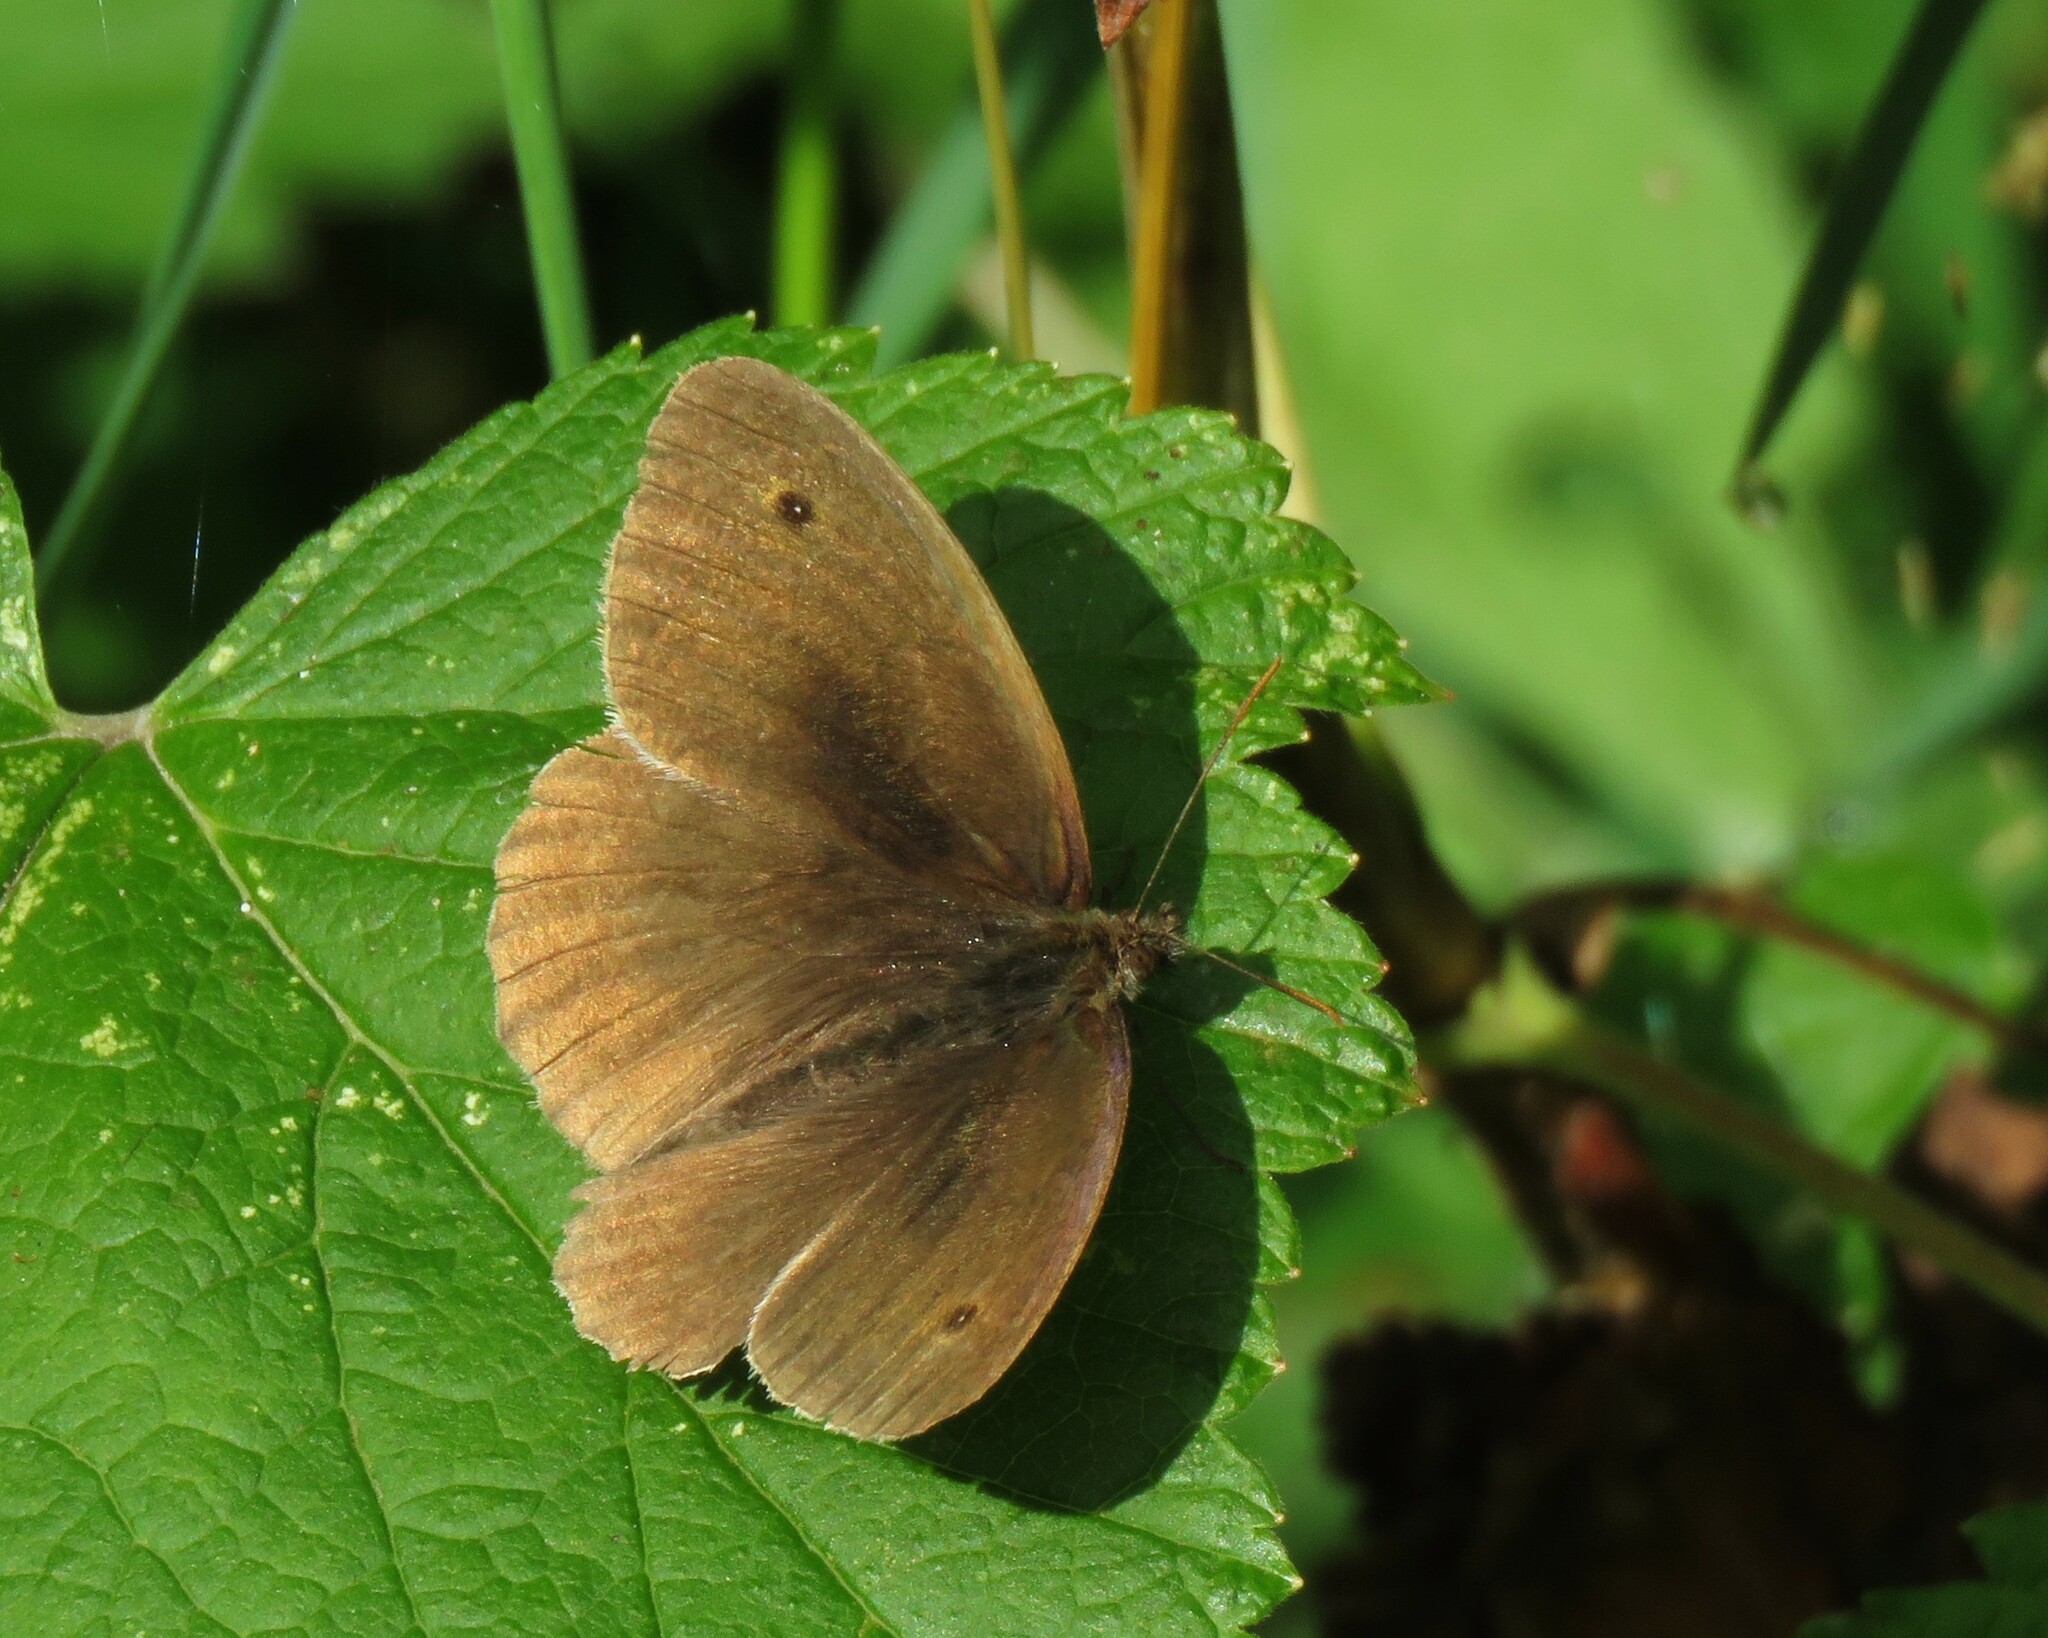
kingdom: Animalia
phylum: Arthropoda
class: Insecta
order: Lepidoptera
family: Nymphalidae
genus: Maniola
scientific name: Maniola jurtina
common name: Meadow brown
